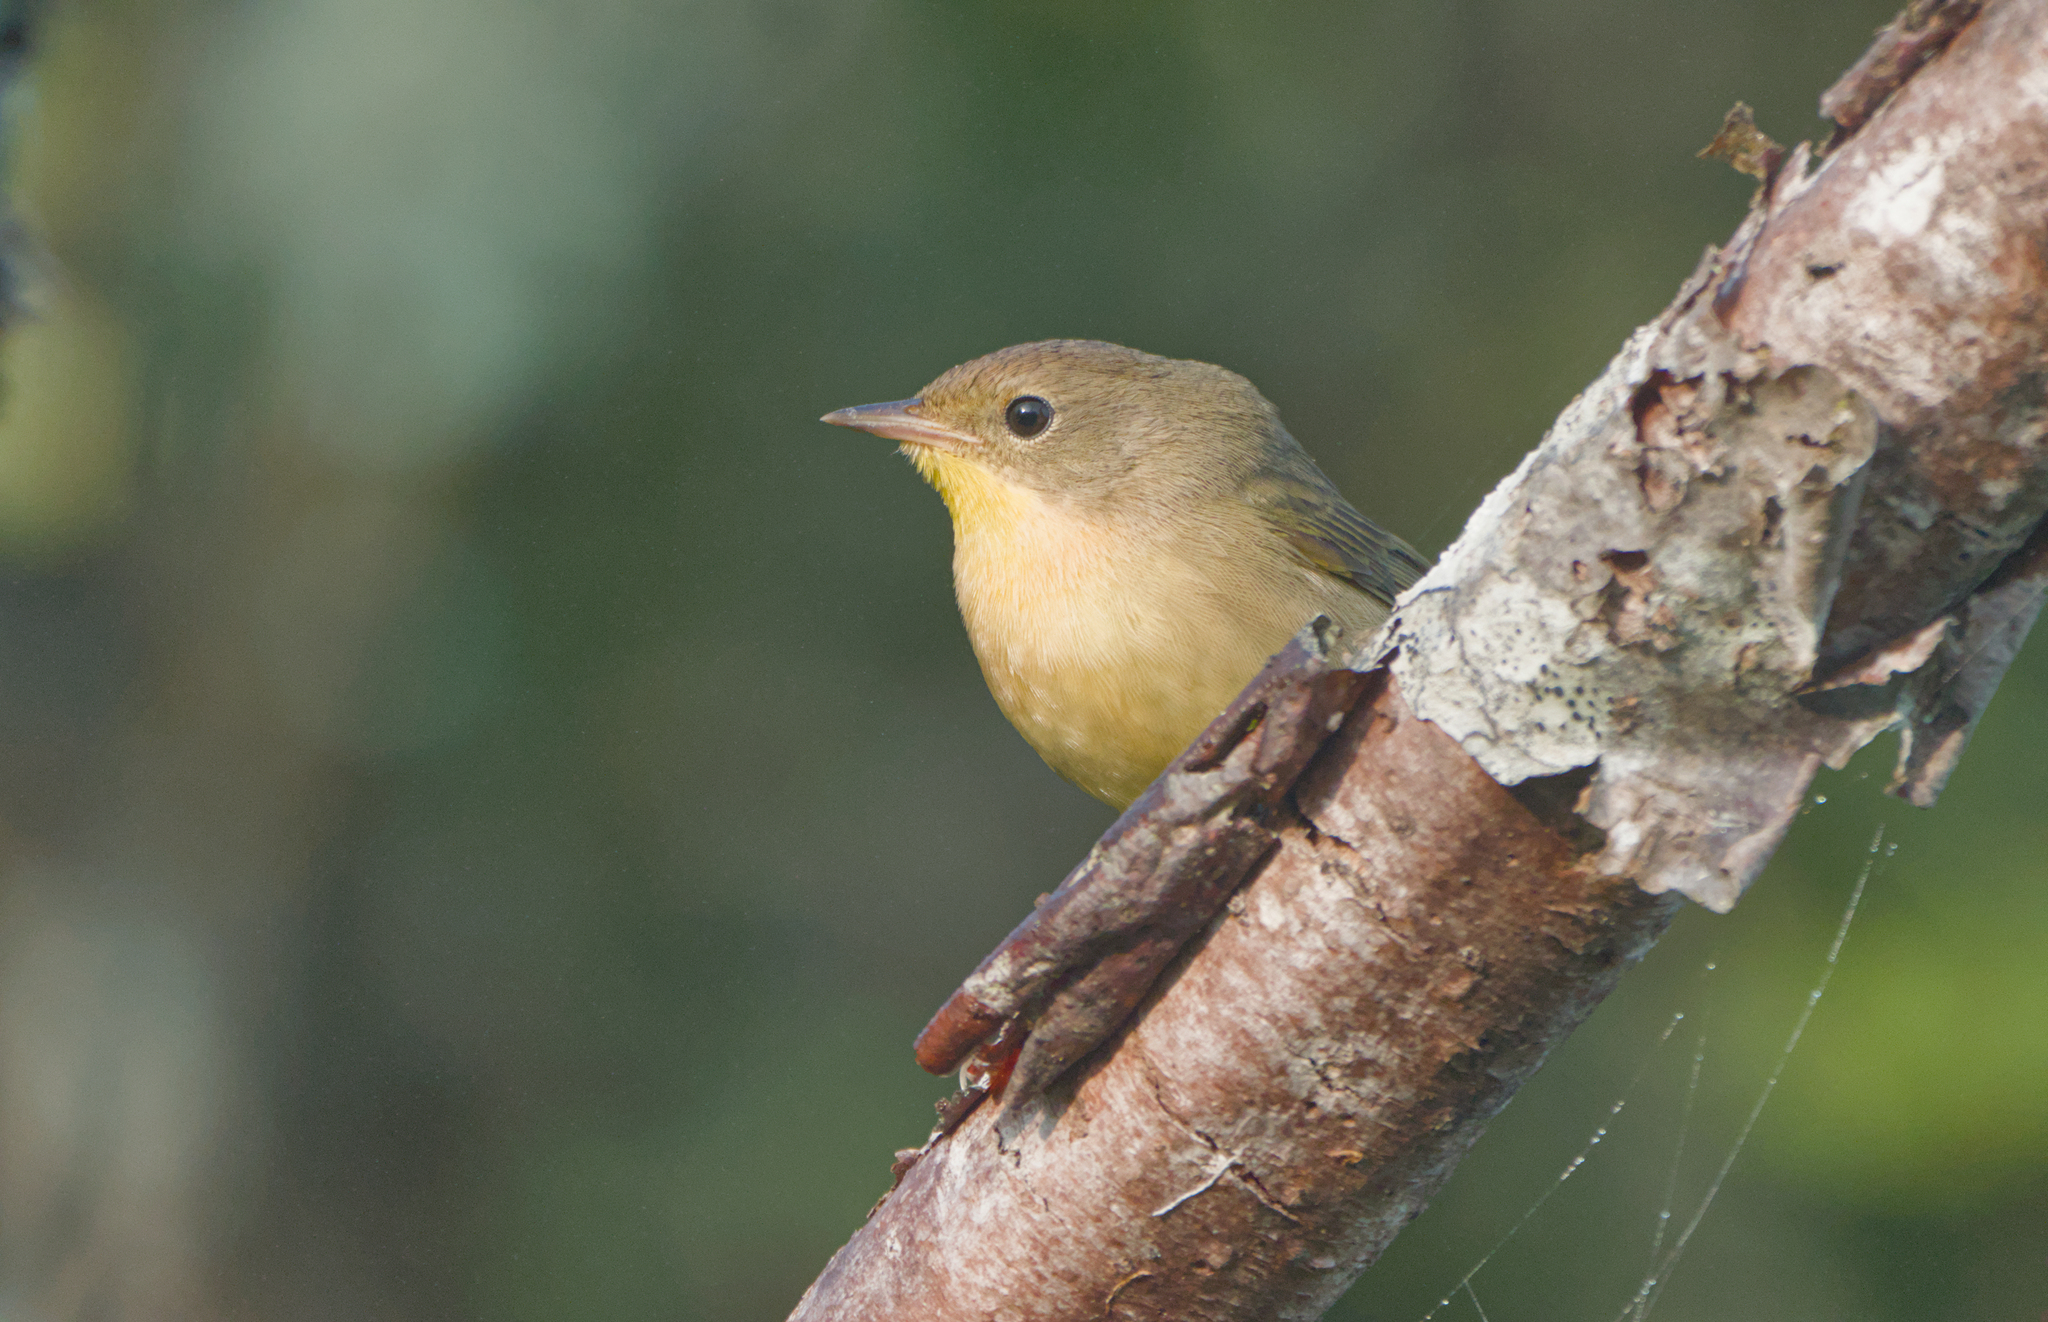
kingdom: Animalia
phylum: Chordata
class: Aves
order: Passeriformes
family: Parulidae
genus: Geothlypis
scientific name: Geothlypis trichas
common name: Common yellowthroat
